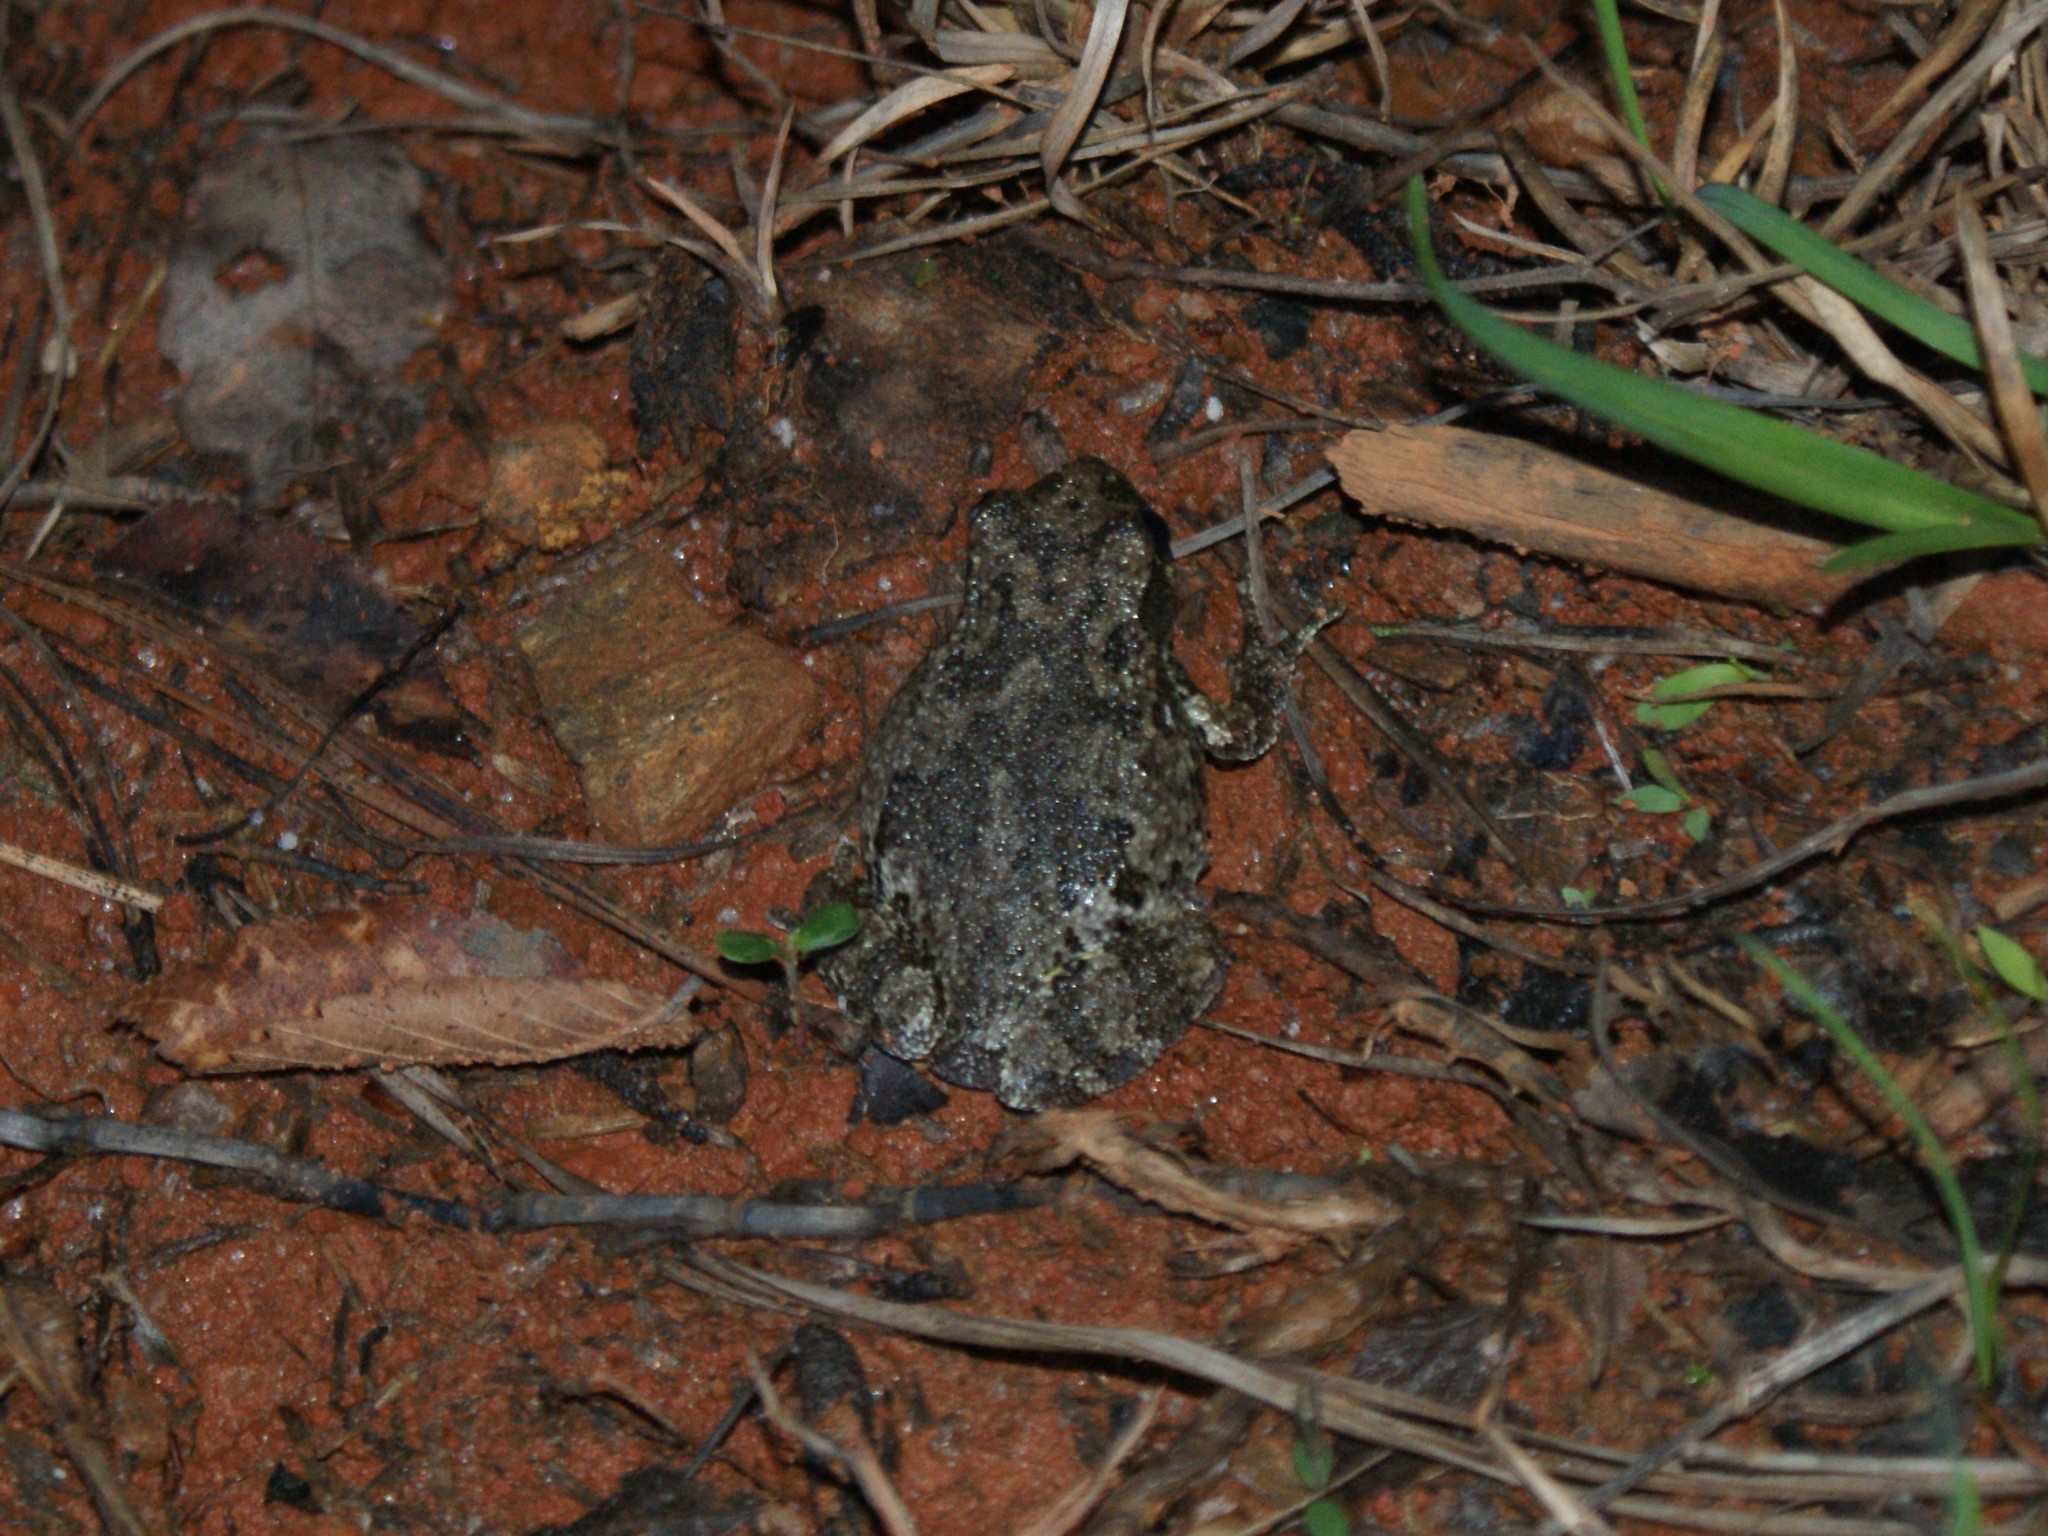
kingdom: Animalia
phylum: Chordata
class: Amphibia
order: Anura
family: Hylidae
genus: Dryophytes
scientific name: Dryophytes chrysoscelis
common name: Cope's gray treefrog
